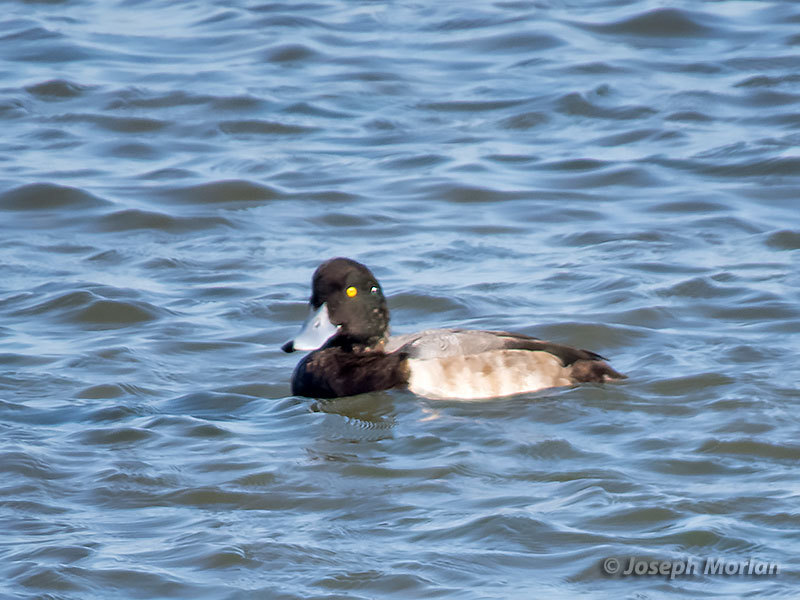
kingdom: Animalia
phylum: Chordata
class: Aves
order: Anseriformes
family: Anatidae
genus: Aythya
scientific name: Aythya marila
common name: Greater scaup
